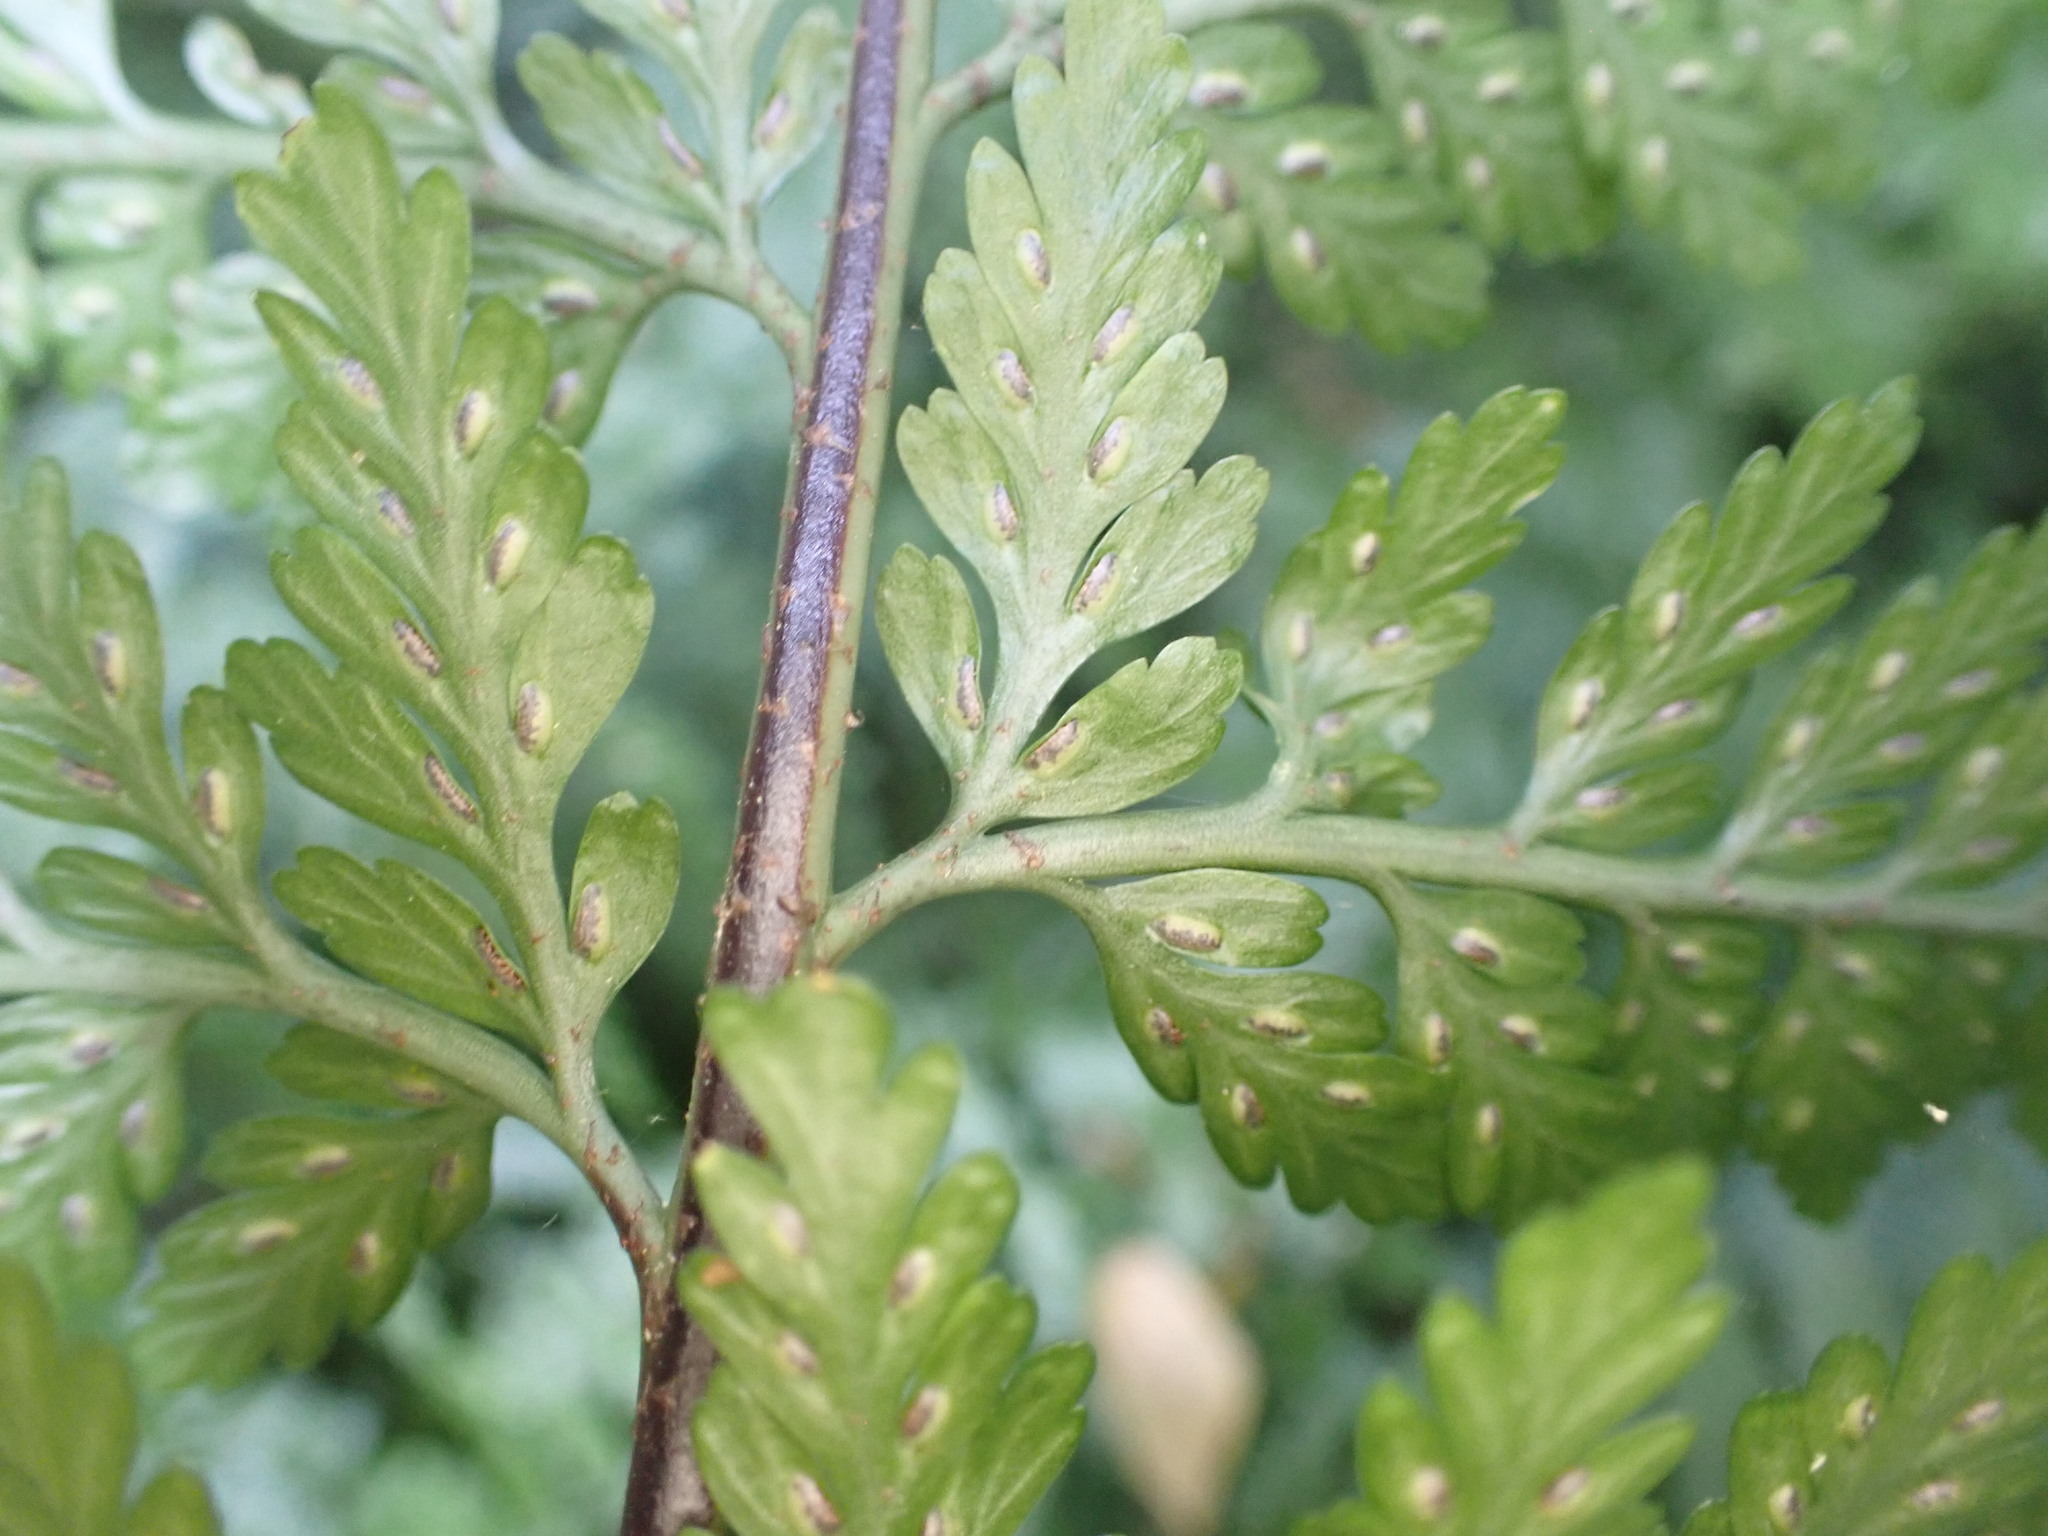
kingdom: Plantae
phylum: Tracheophyta
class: Polypodiopsida
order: Polypodiales
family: Aspleniaceae
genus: Asplenium
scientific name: Asplenium
